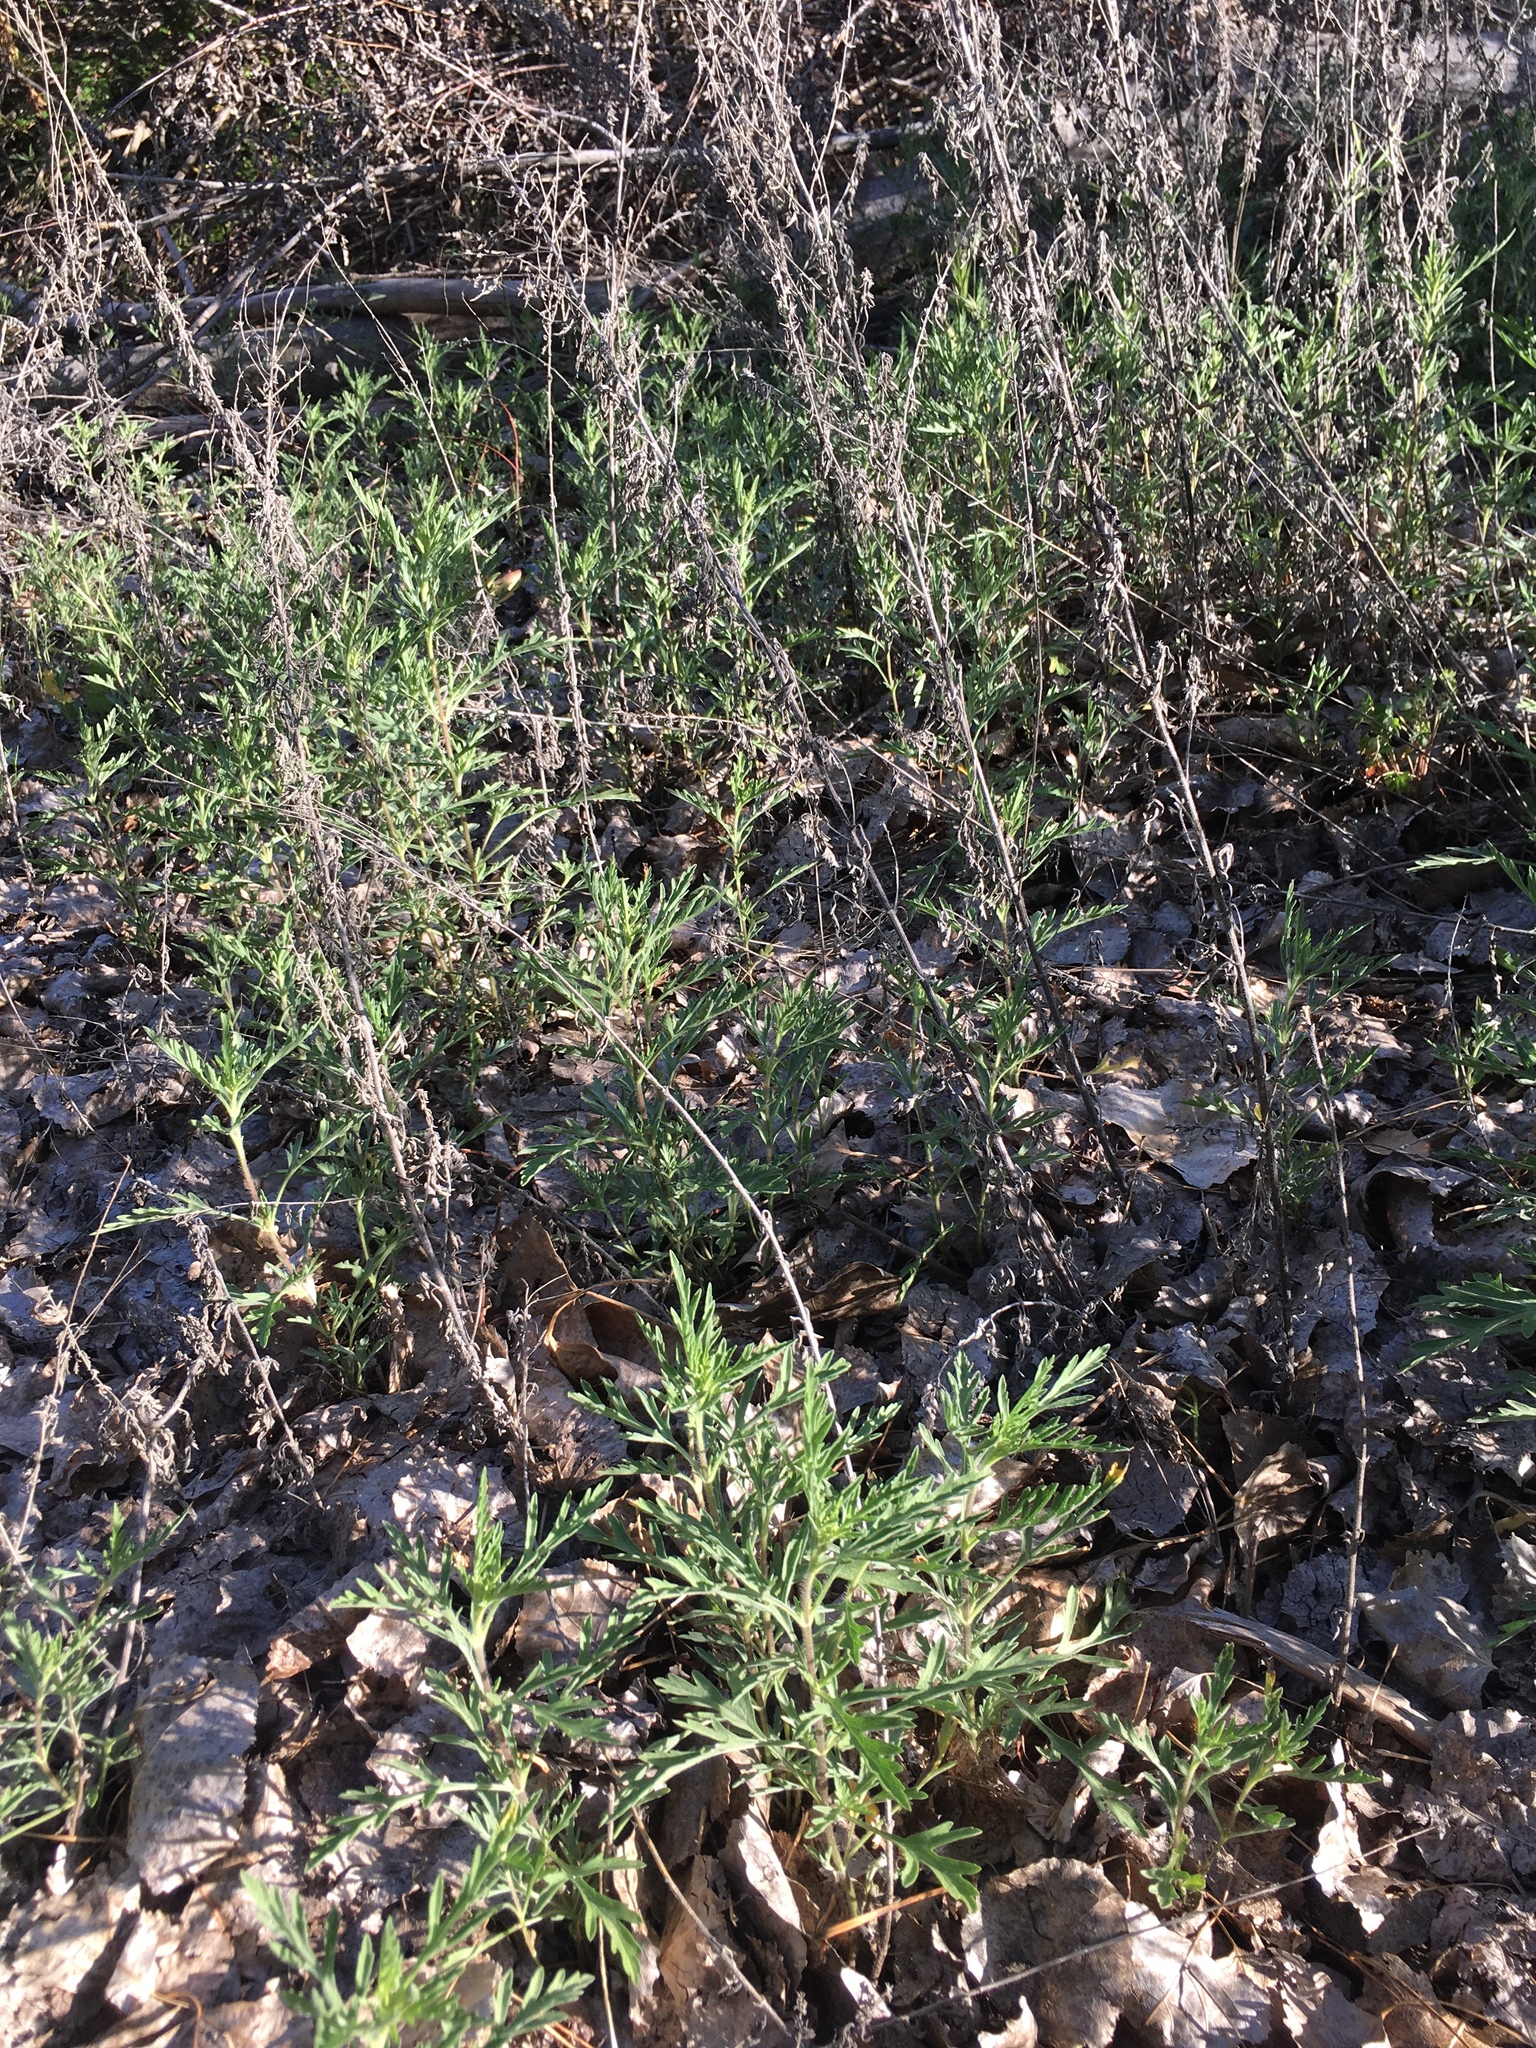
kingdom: Plantae
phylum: Tracheophyta
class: Magnoliopsida
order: Asterales
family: Asteraceae
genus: Ambrosia
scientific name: Ambrosia psilostachya
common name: Perennial ragweed
